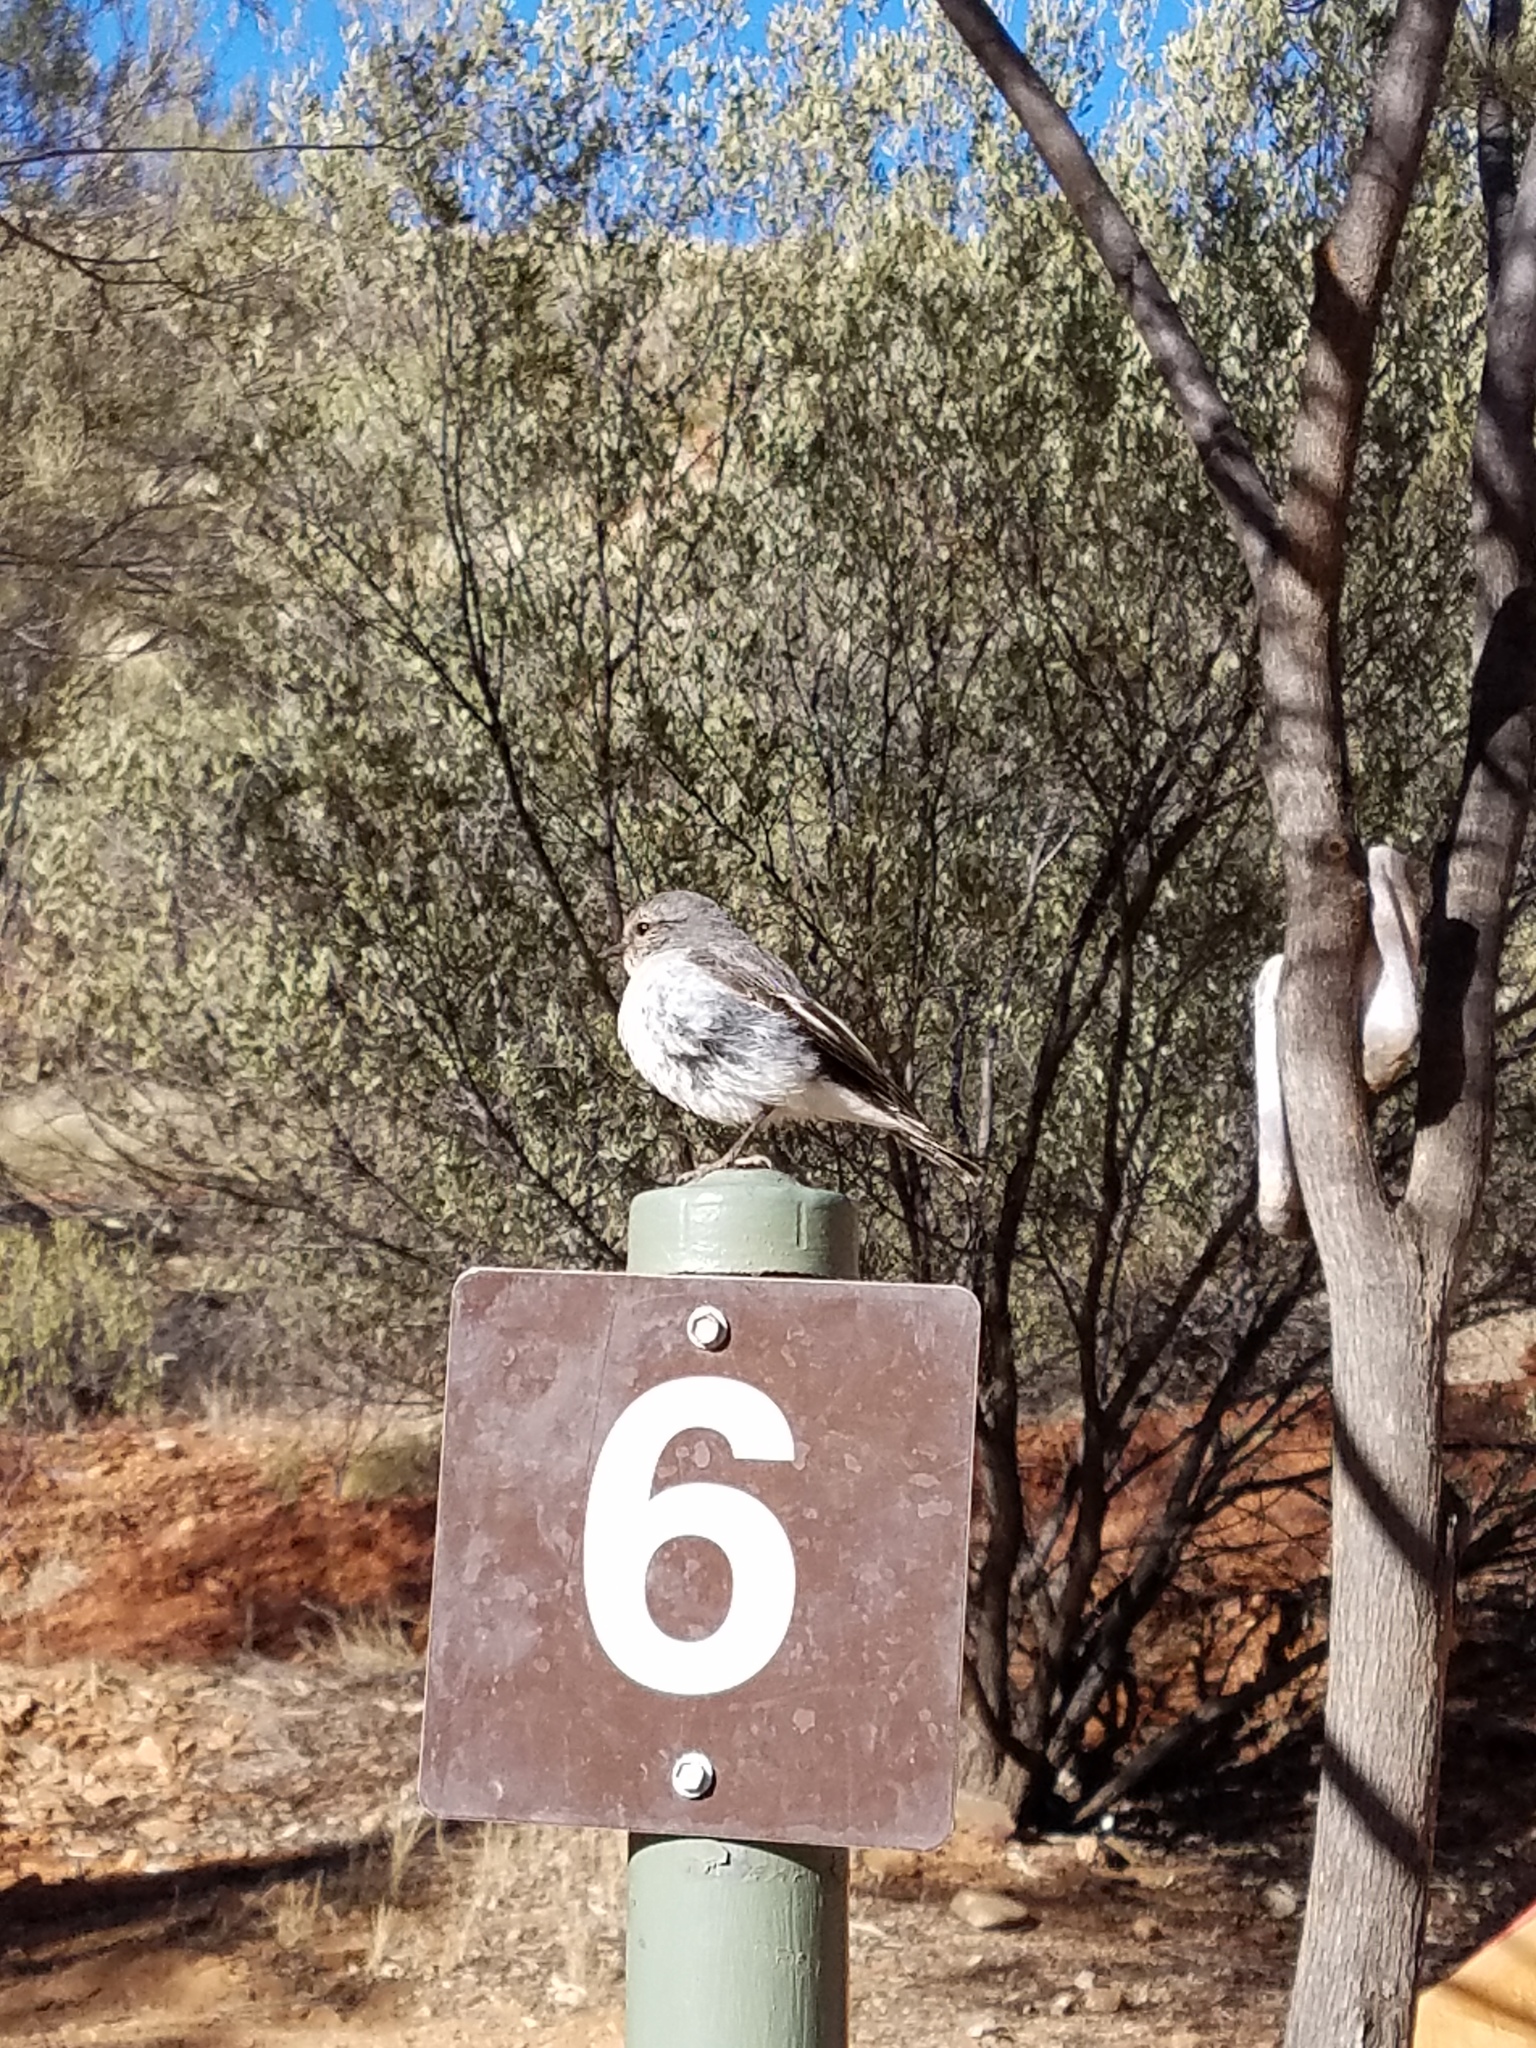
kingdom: Animalia
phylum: Chordata
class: Aves
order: Passeriformes
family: Petroicidae
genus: Melanodryas
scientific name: Melanodryas cucullata
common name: Hooded robin
